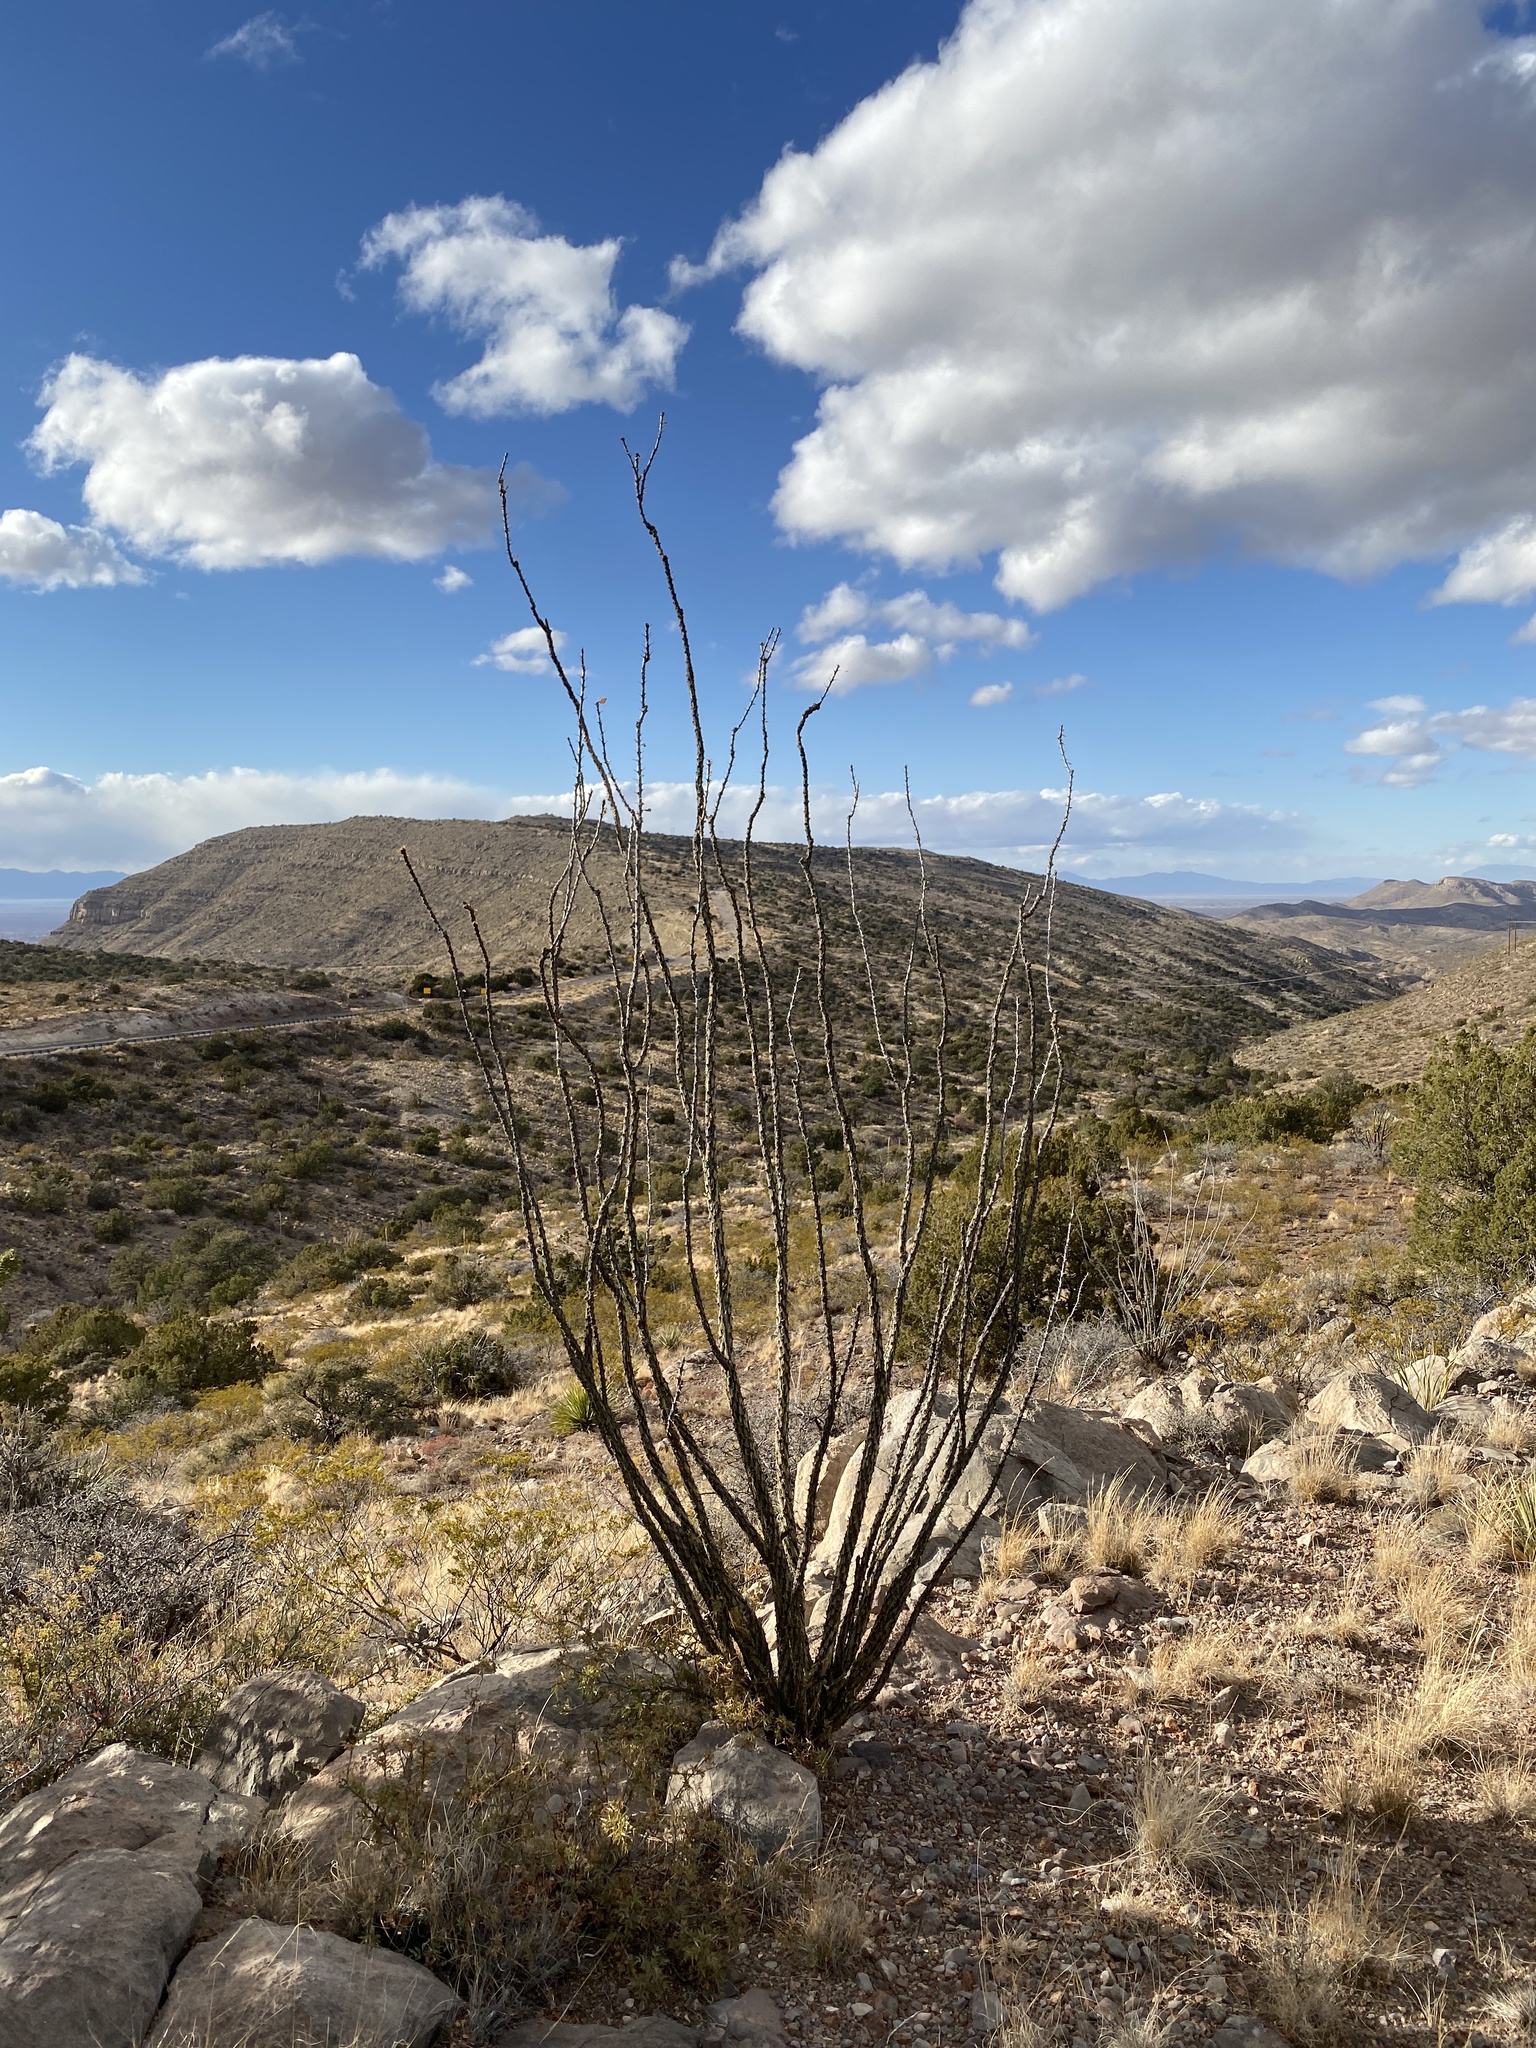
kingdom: Plantae
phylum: Tracheophyta
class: Magnoliopsida
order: Ericales
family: Fouquieriaceae
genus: Fouquieria
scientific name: Fouquieria splendens
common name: Vine-cactus
